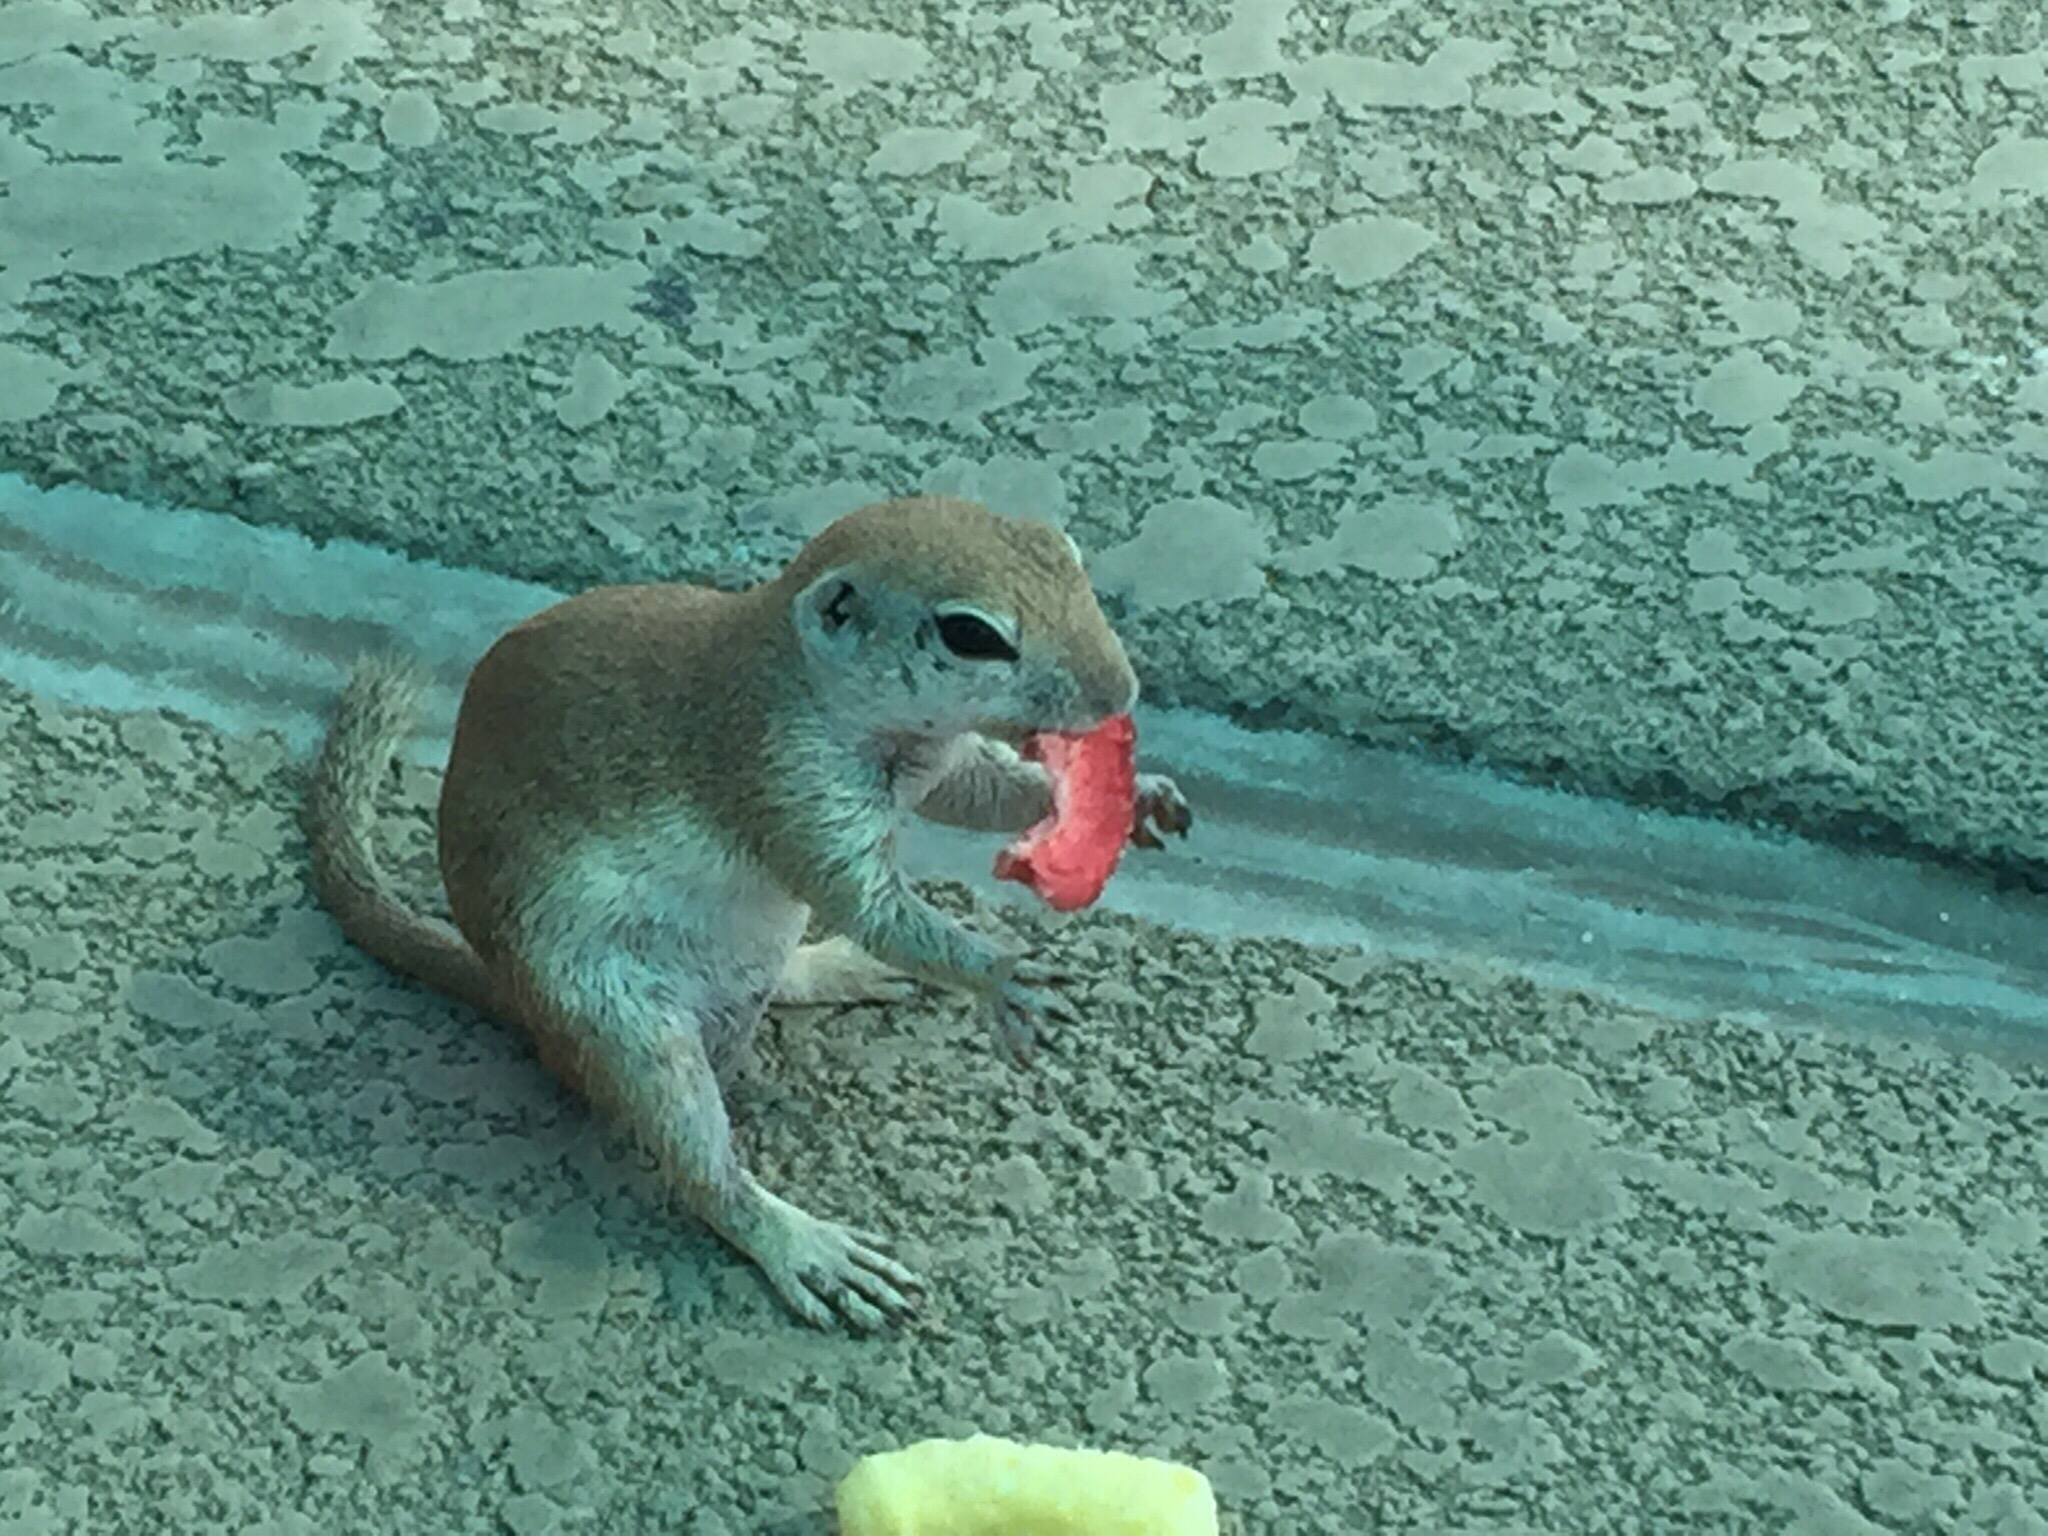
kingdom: Animalia
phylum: Chordata
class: Mammalia
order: Rodentia
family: Sciuridae
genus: Xerospermophilus
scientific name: Xerospermophilus tereticaudus
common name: Round-tailed ground squirrel
